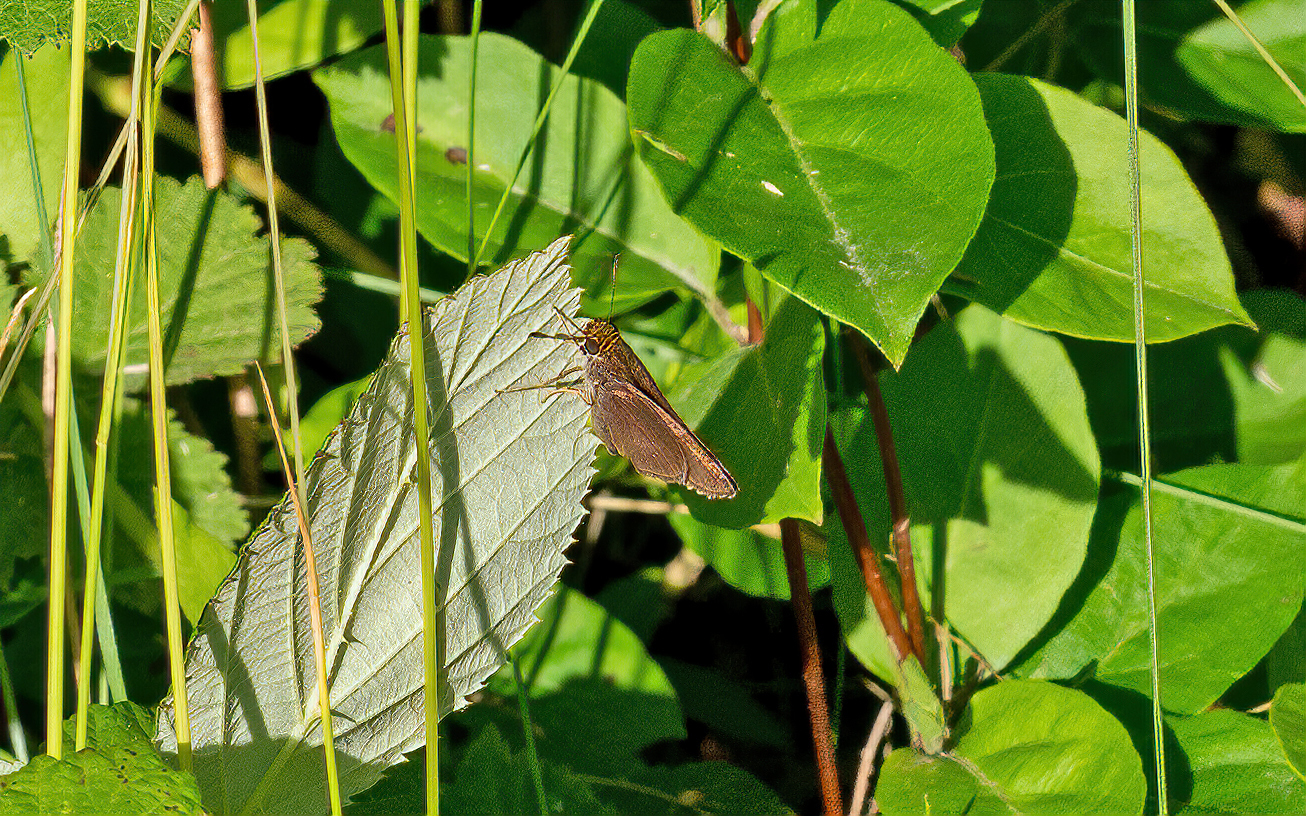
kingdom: Animalia
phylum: Arthropoda
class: Insecta
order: Lepidoptera
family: Hesperiidae
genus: Euphyes
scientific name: Euphyes vestris
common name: Dun skipper
